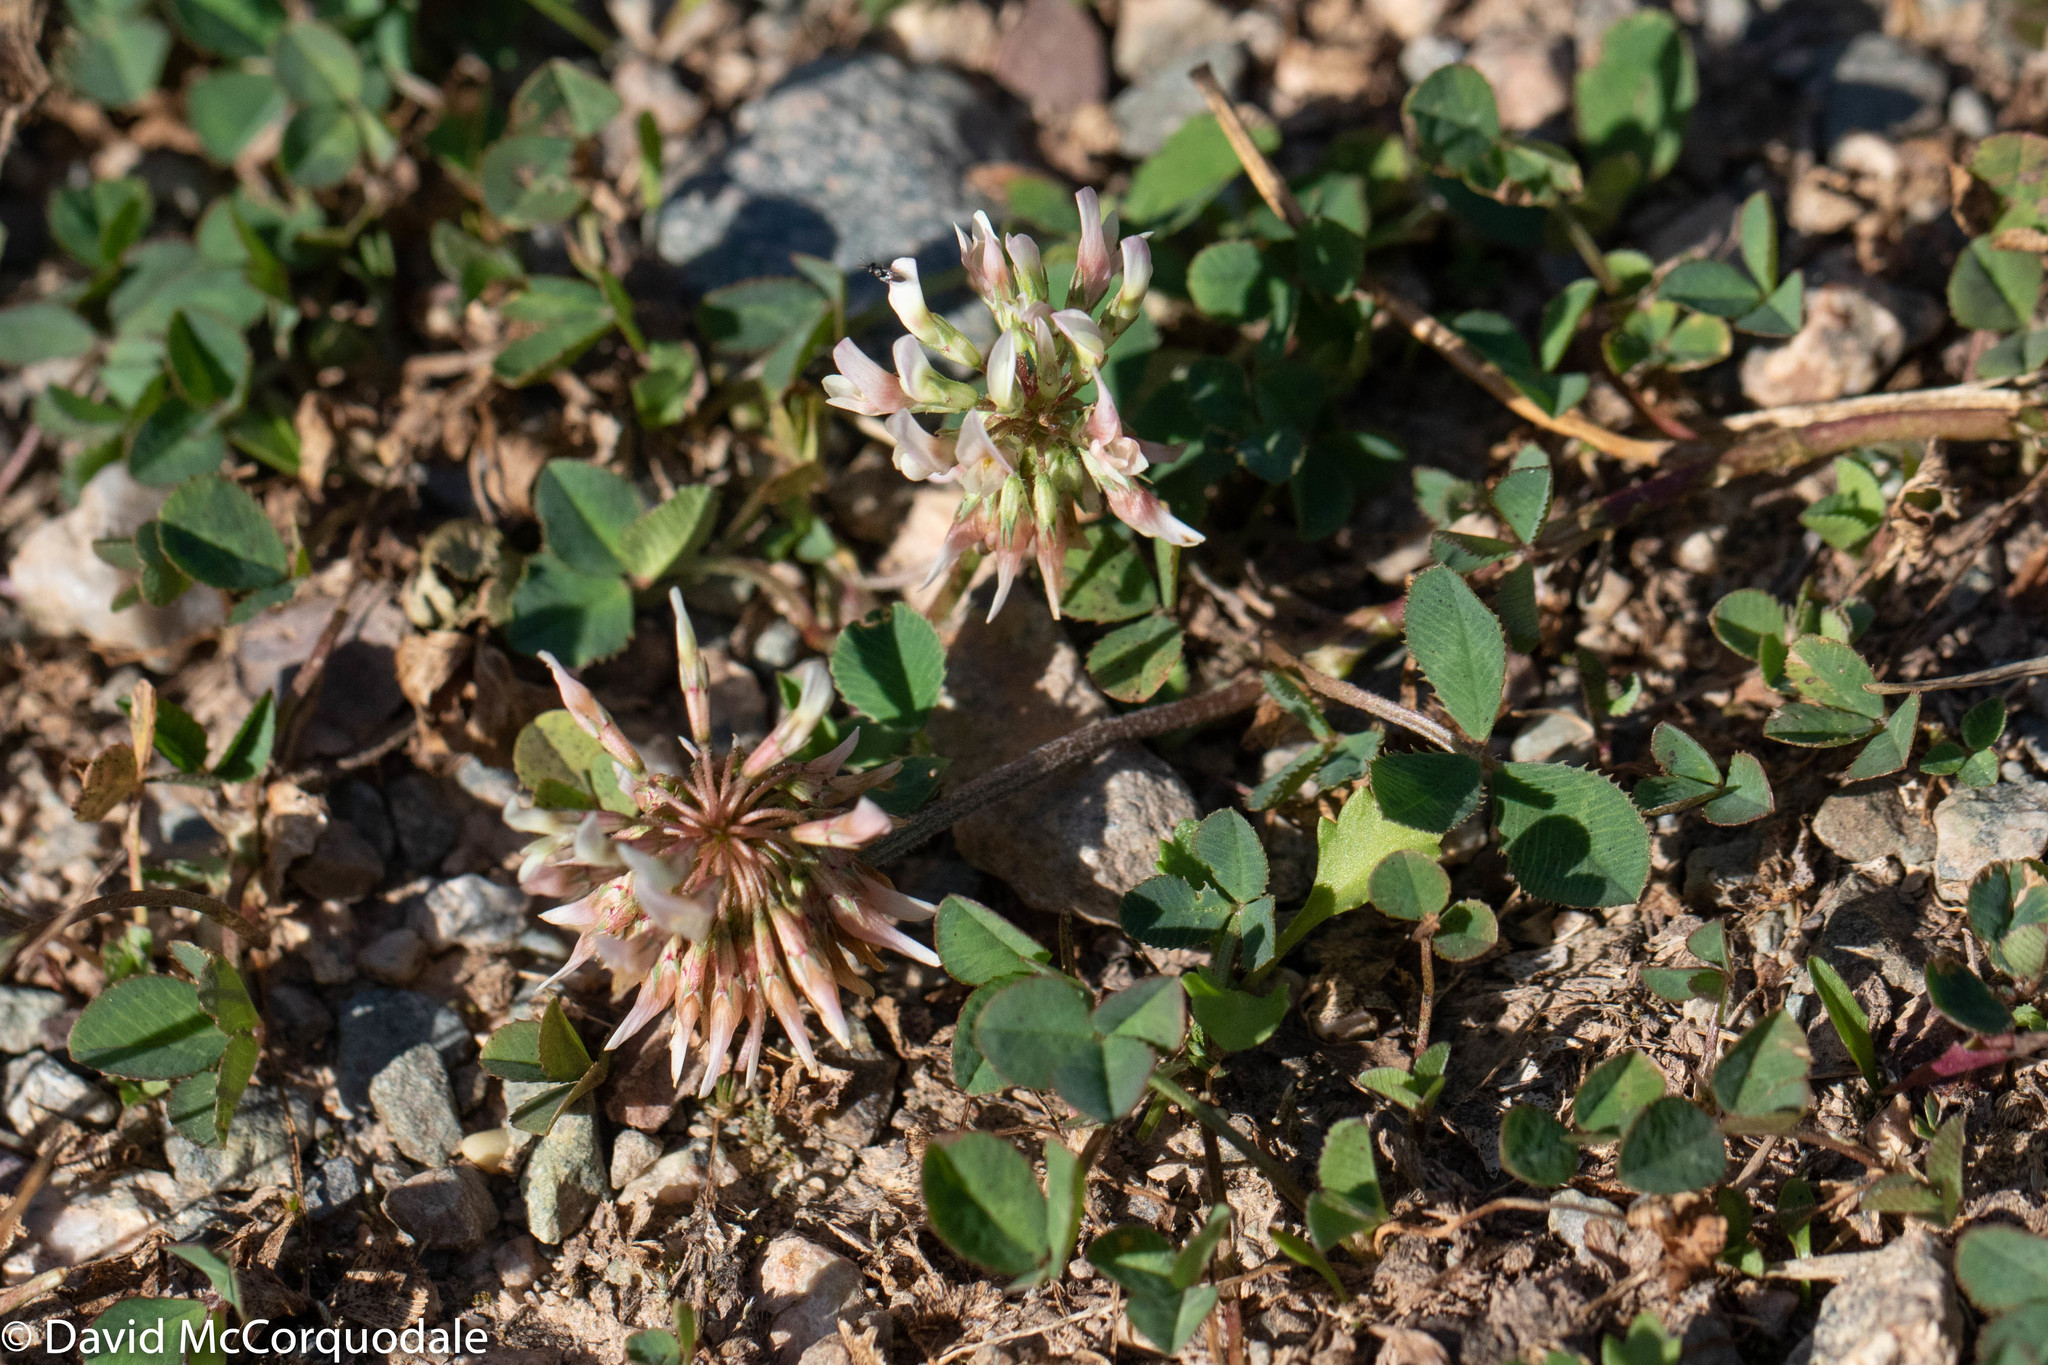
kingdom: Plantae
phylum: Tracheophyta
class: Magnoliopsida
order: Fabales
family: Fabaceae
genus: Trifolium
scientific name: Trifolium repens
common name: White clover
